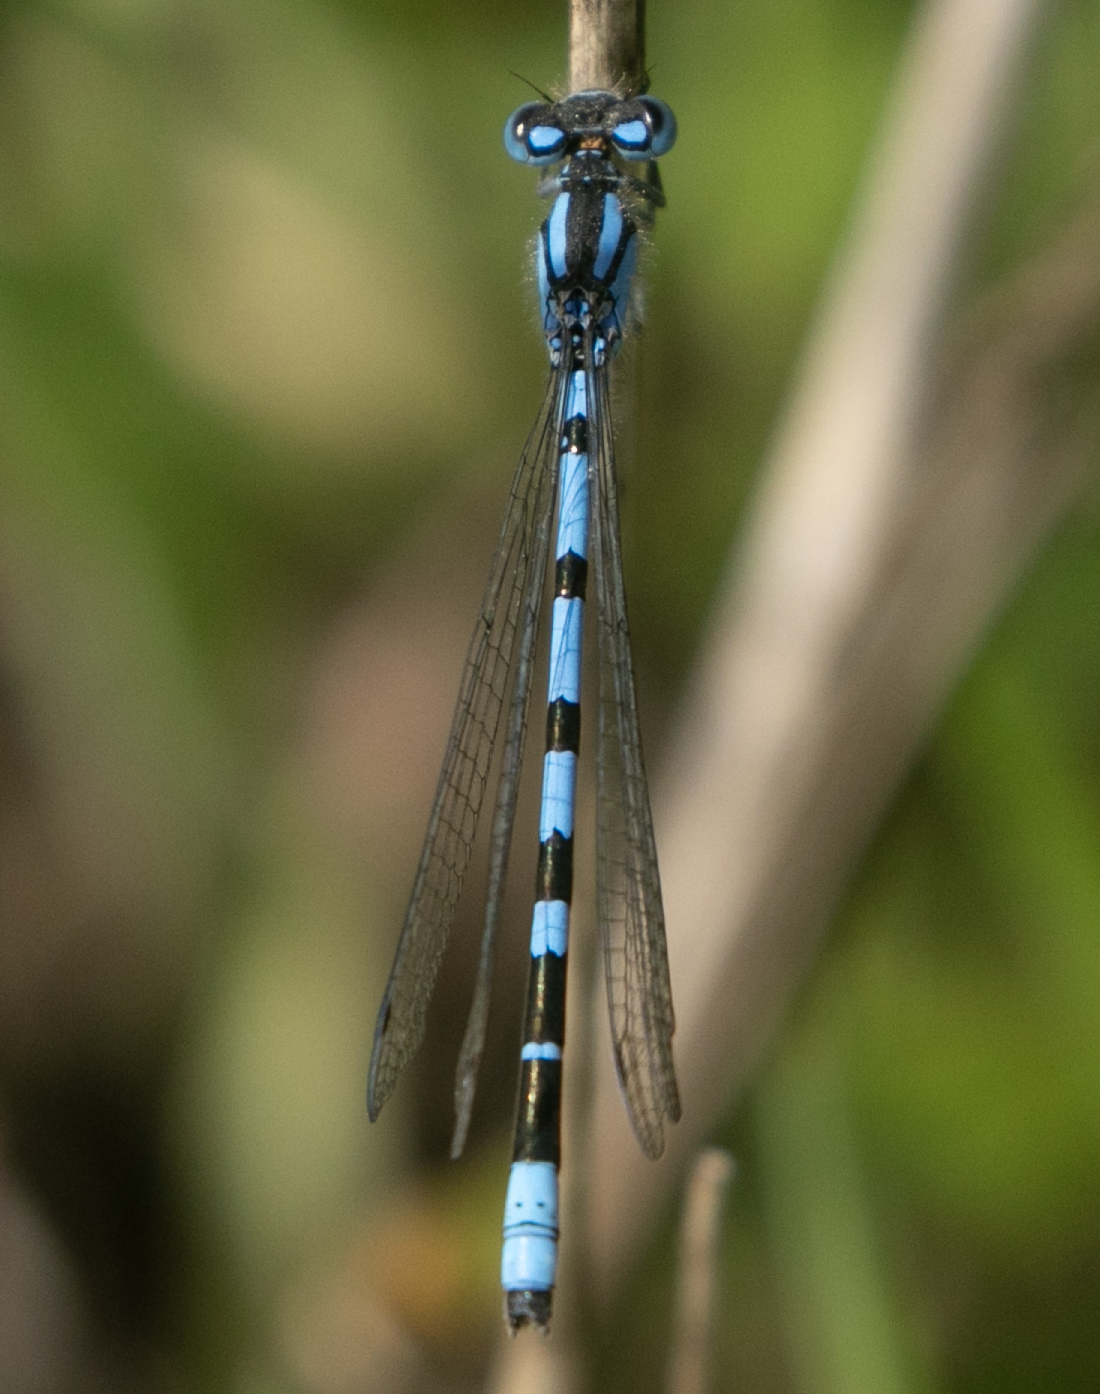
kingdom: Animalia
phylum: Arthropoda
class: Insecta
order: Odonata
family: Coenagrionidae
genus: Enallagma
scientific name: Enallagma cyathigerum
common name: Common blue damselfly
